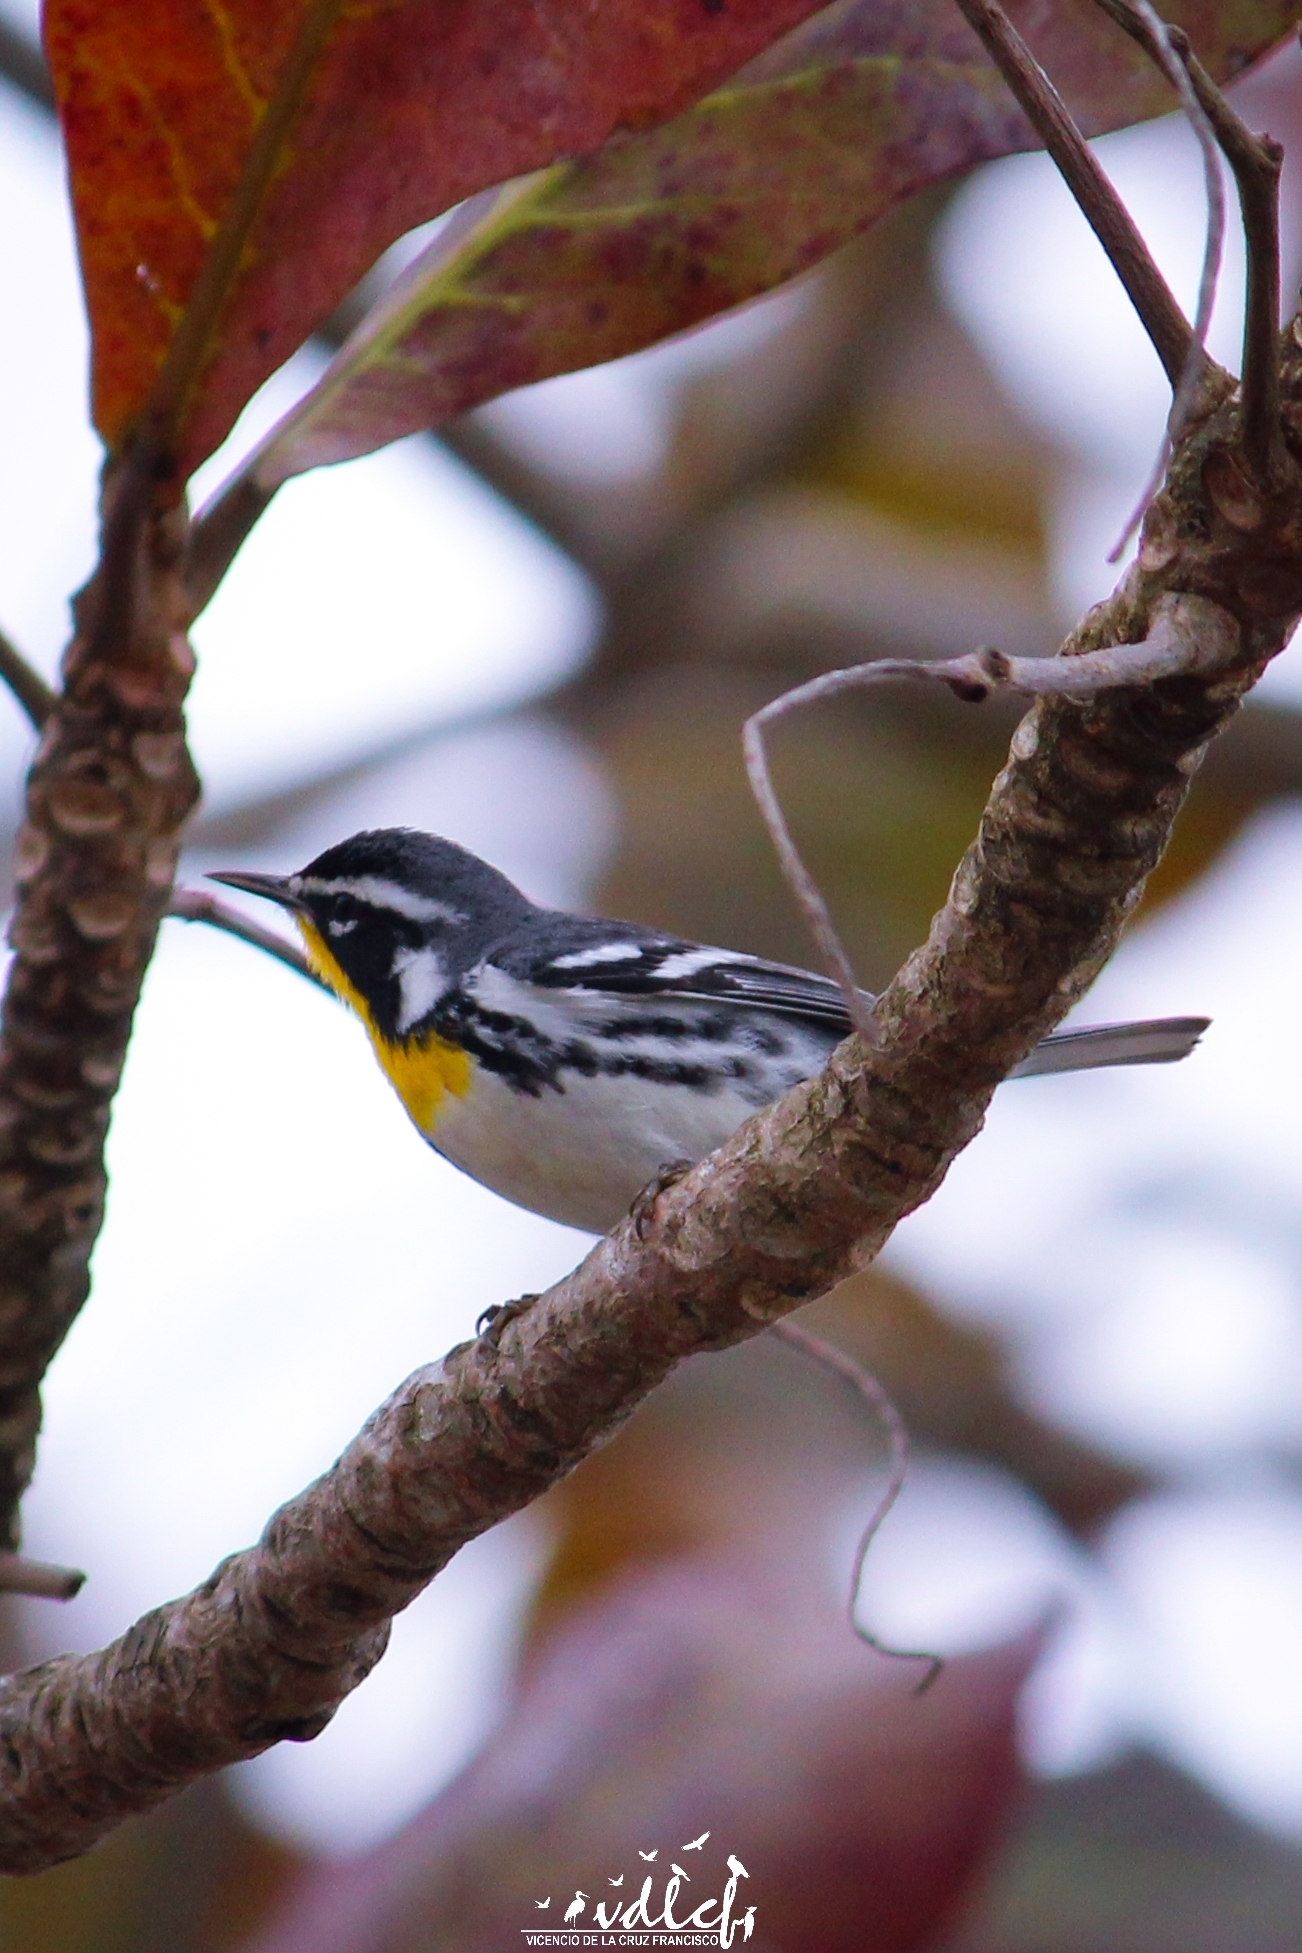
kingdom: Animalia
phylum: Chordata
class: Aves
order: Passeriformes
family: Parulidae
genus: Setophaga
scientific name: Setophaga dominica
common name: Yellow-throated warbler
